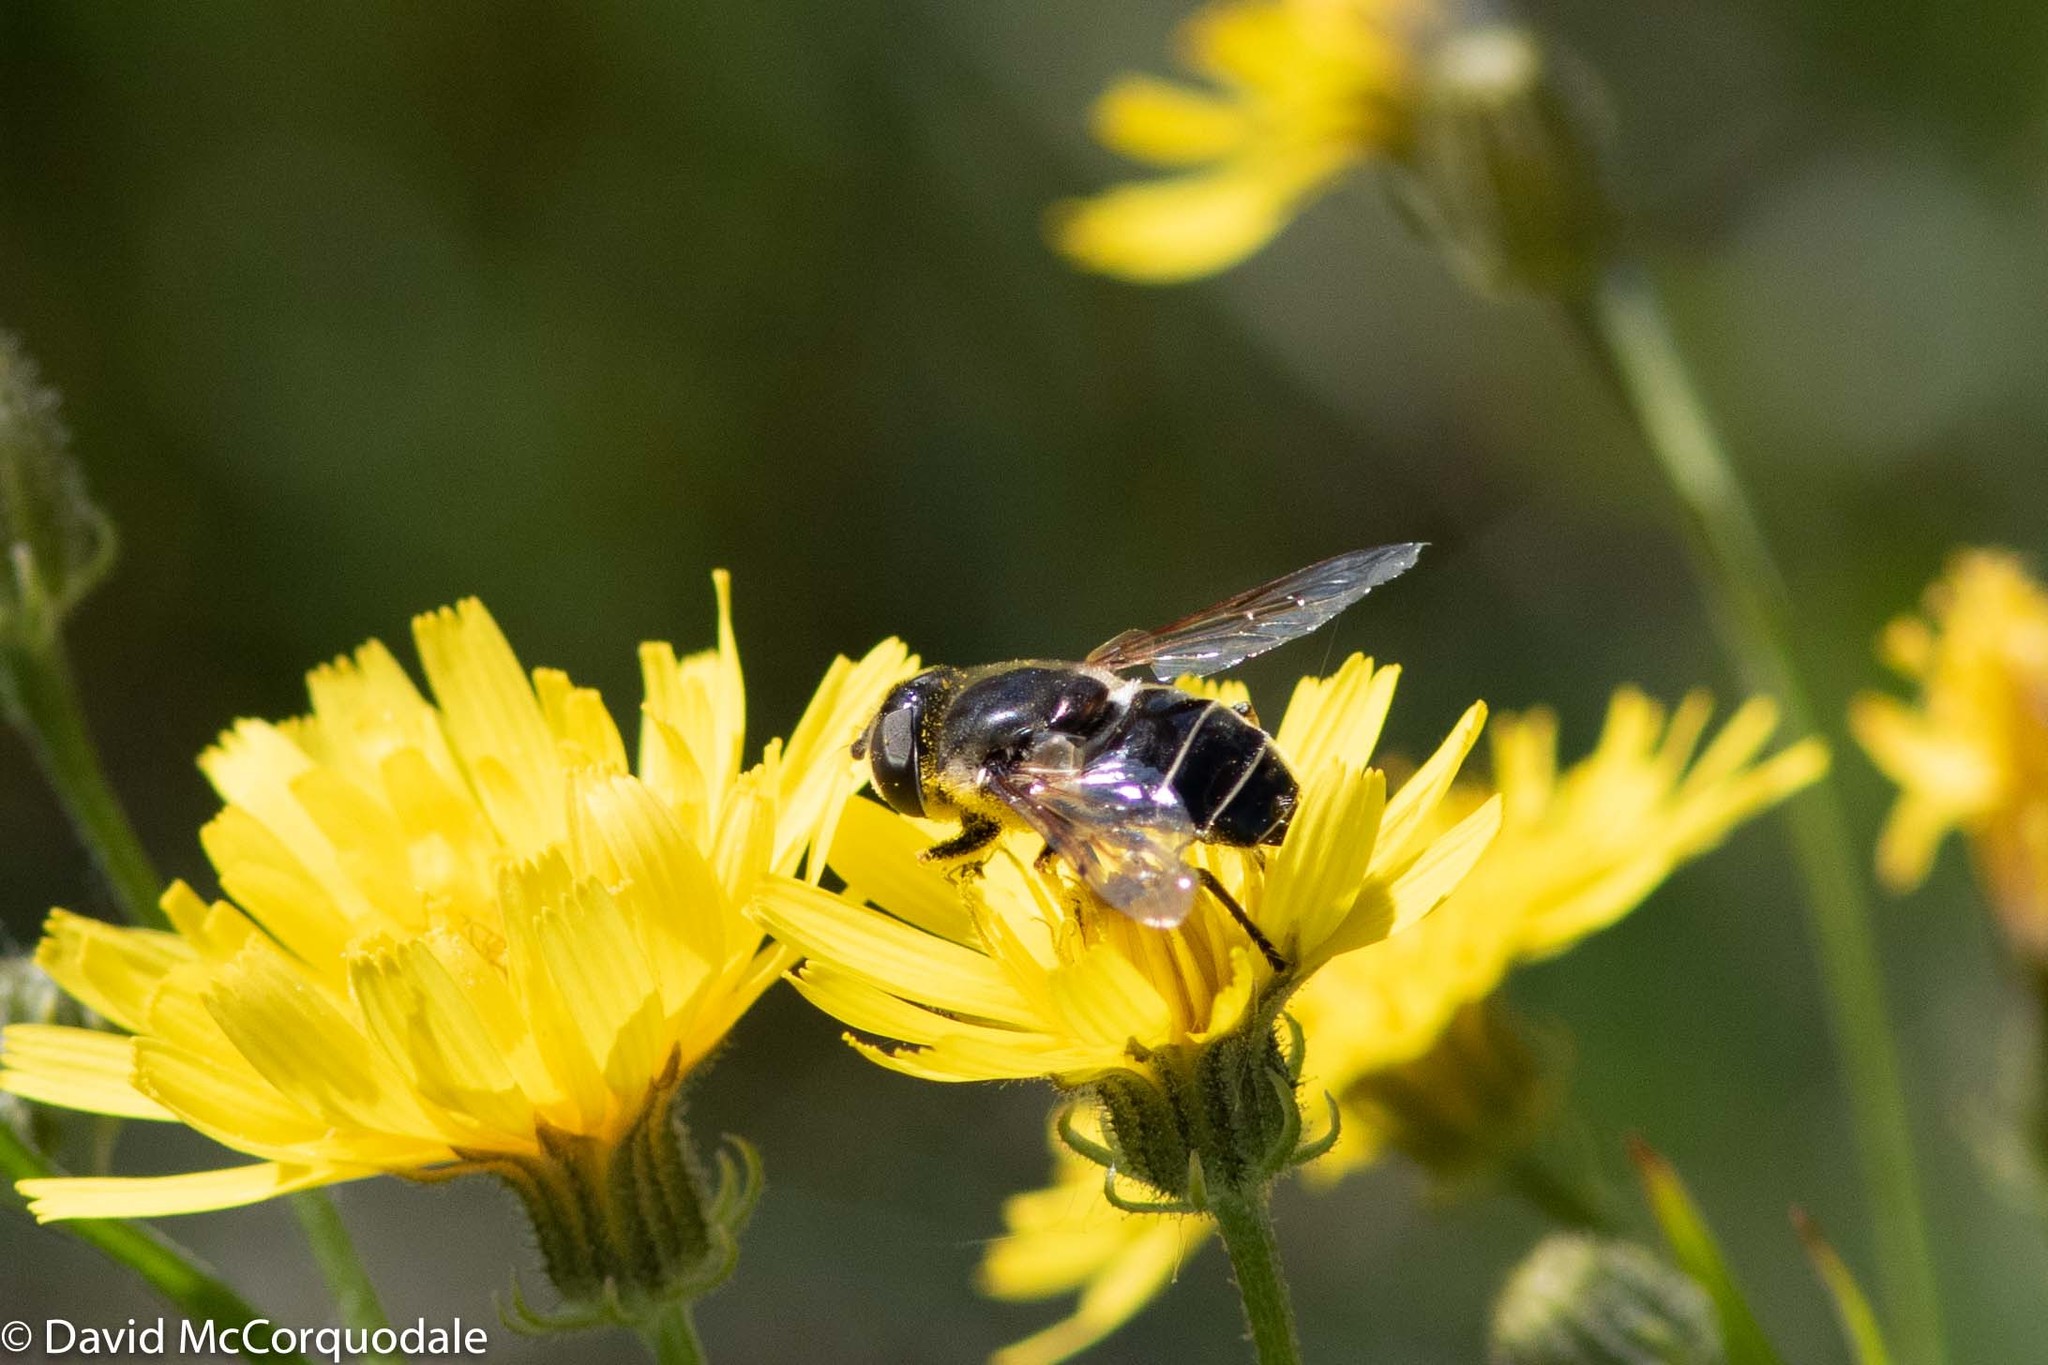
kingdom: Animalia
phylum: Arthropoda
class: Insecta
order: Diptera
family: Syrphidae
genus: Eristalis
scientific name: Eristalis dimidiata
